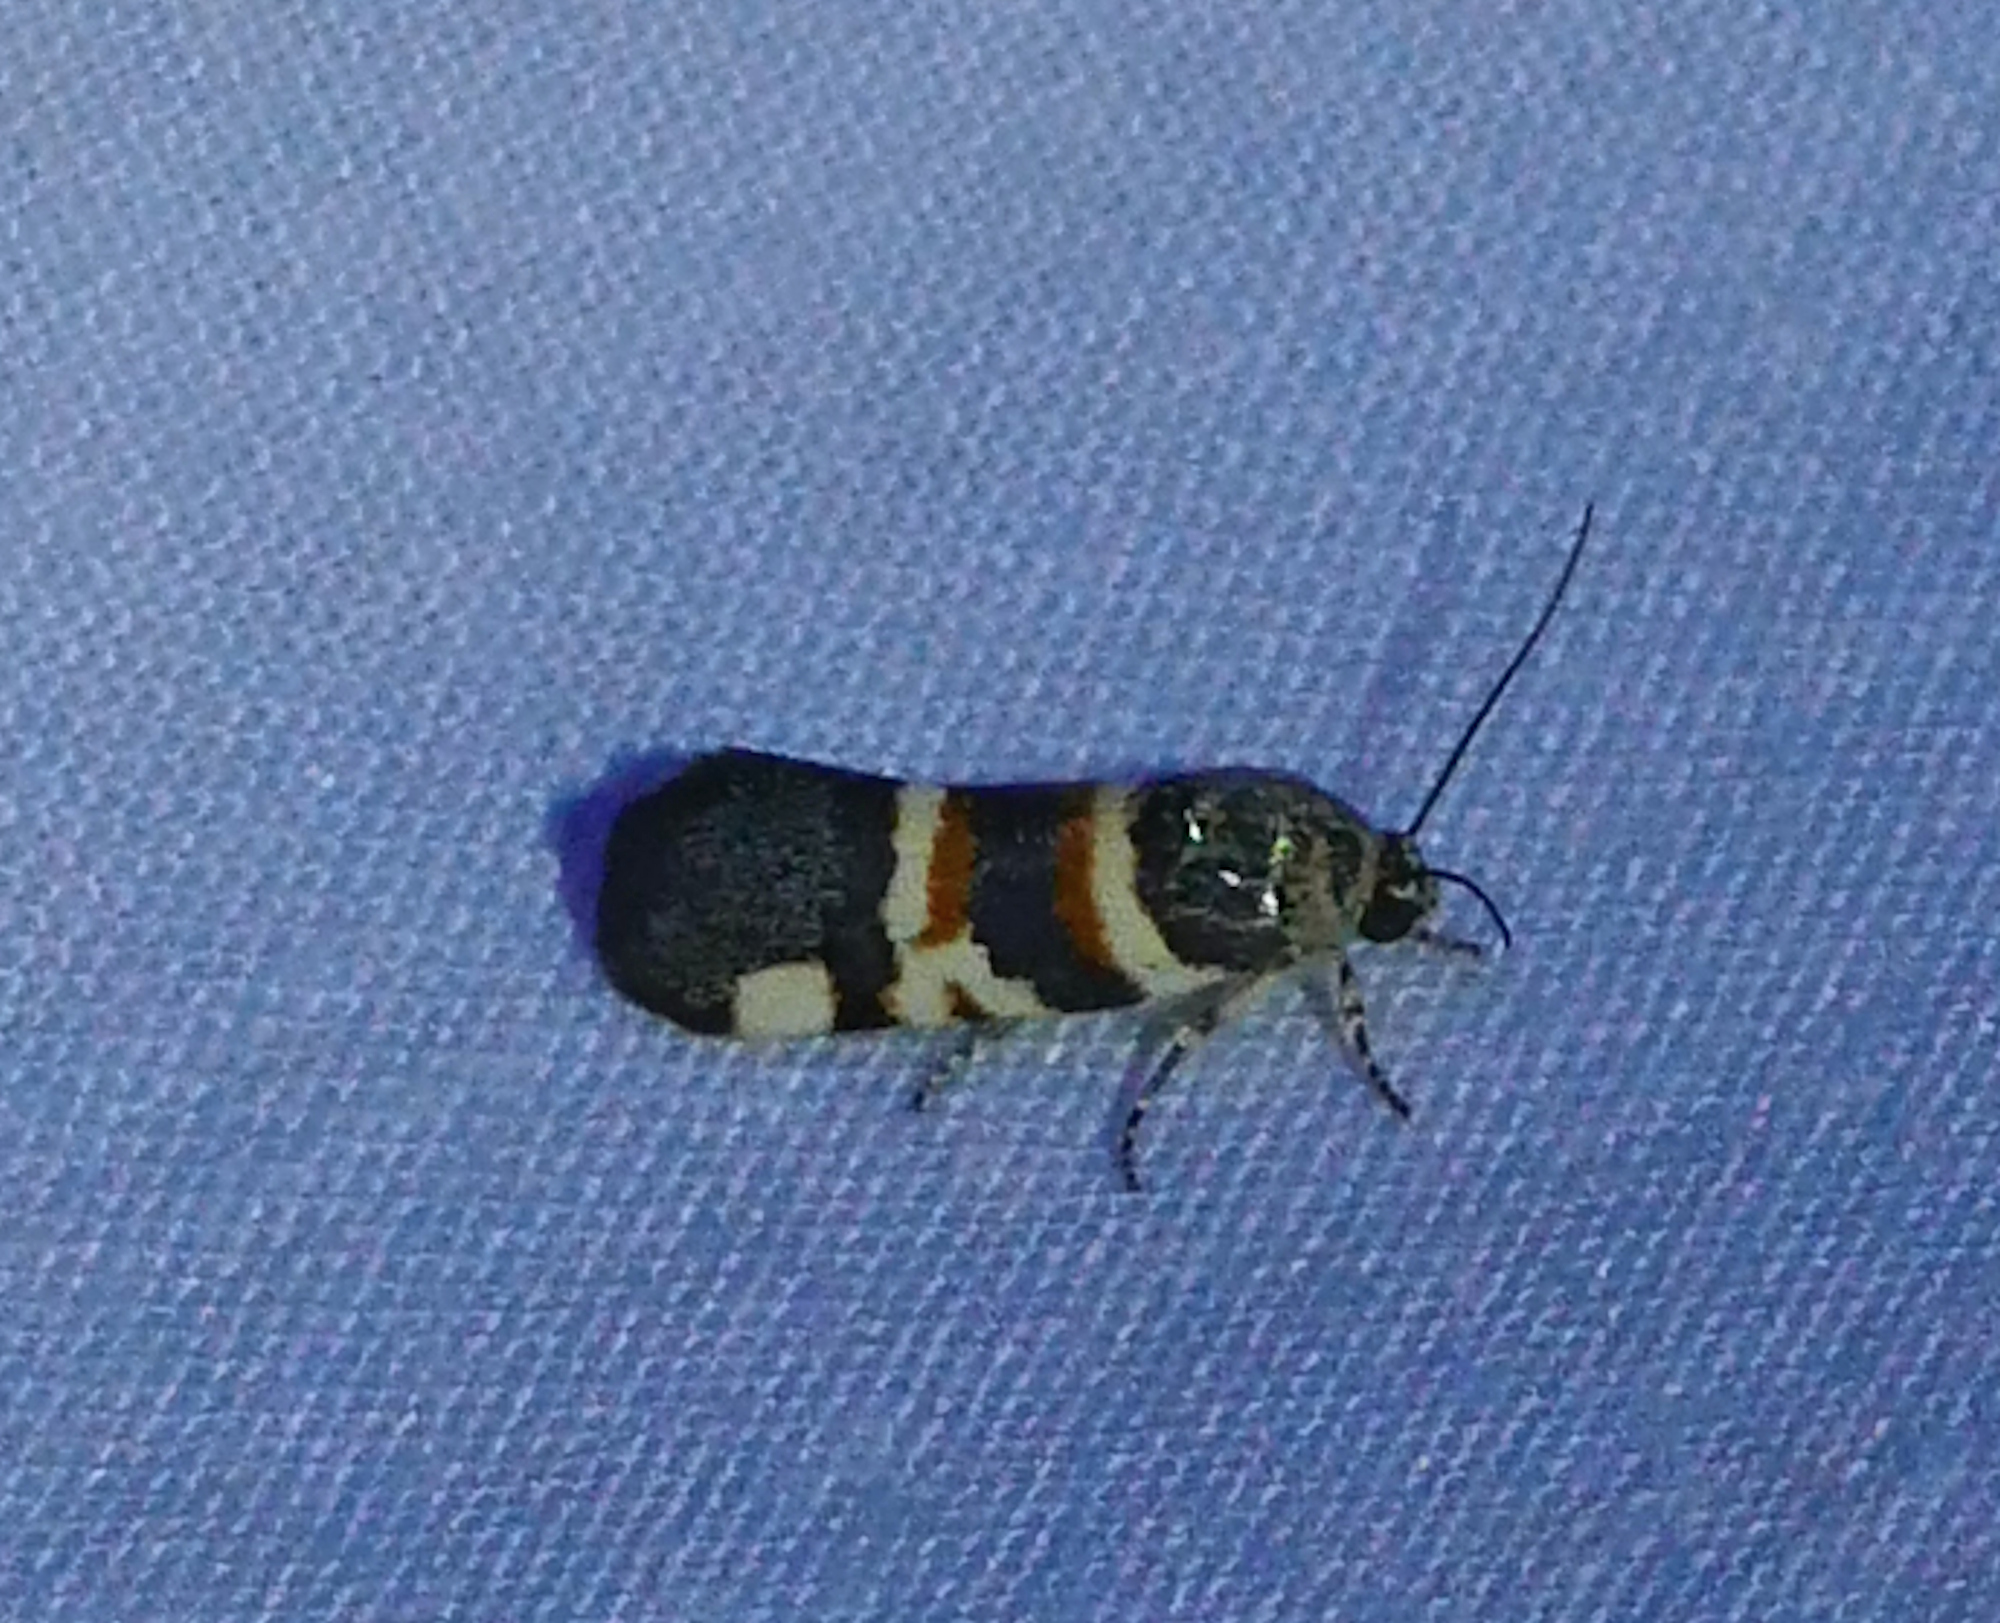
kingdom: Animalia
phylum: Arthropoda
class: Insecta
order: Lepidoptera
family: Noctuidae
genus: Spragueia
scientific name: Spragueia funeralis
